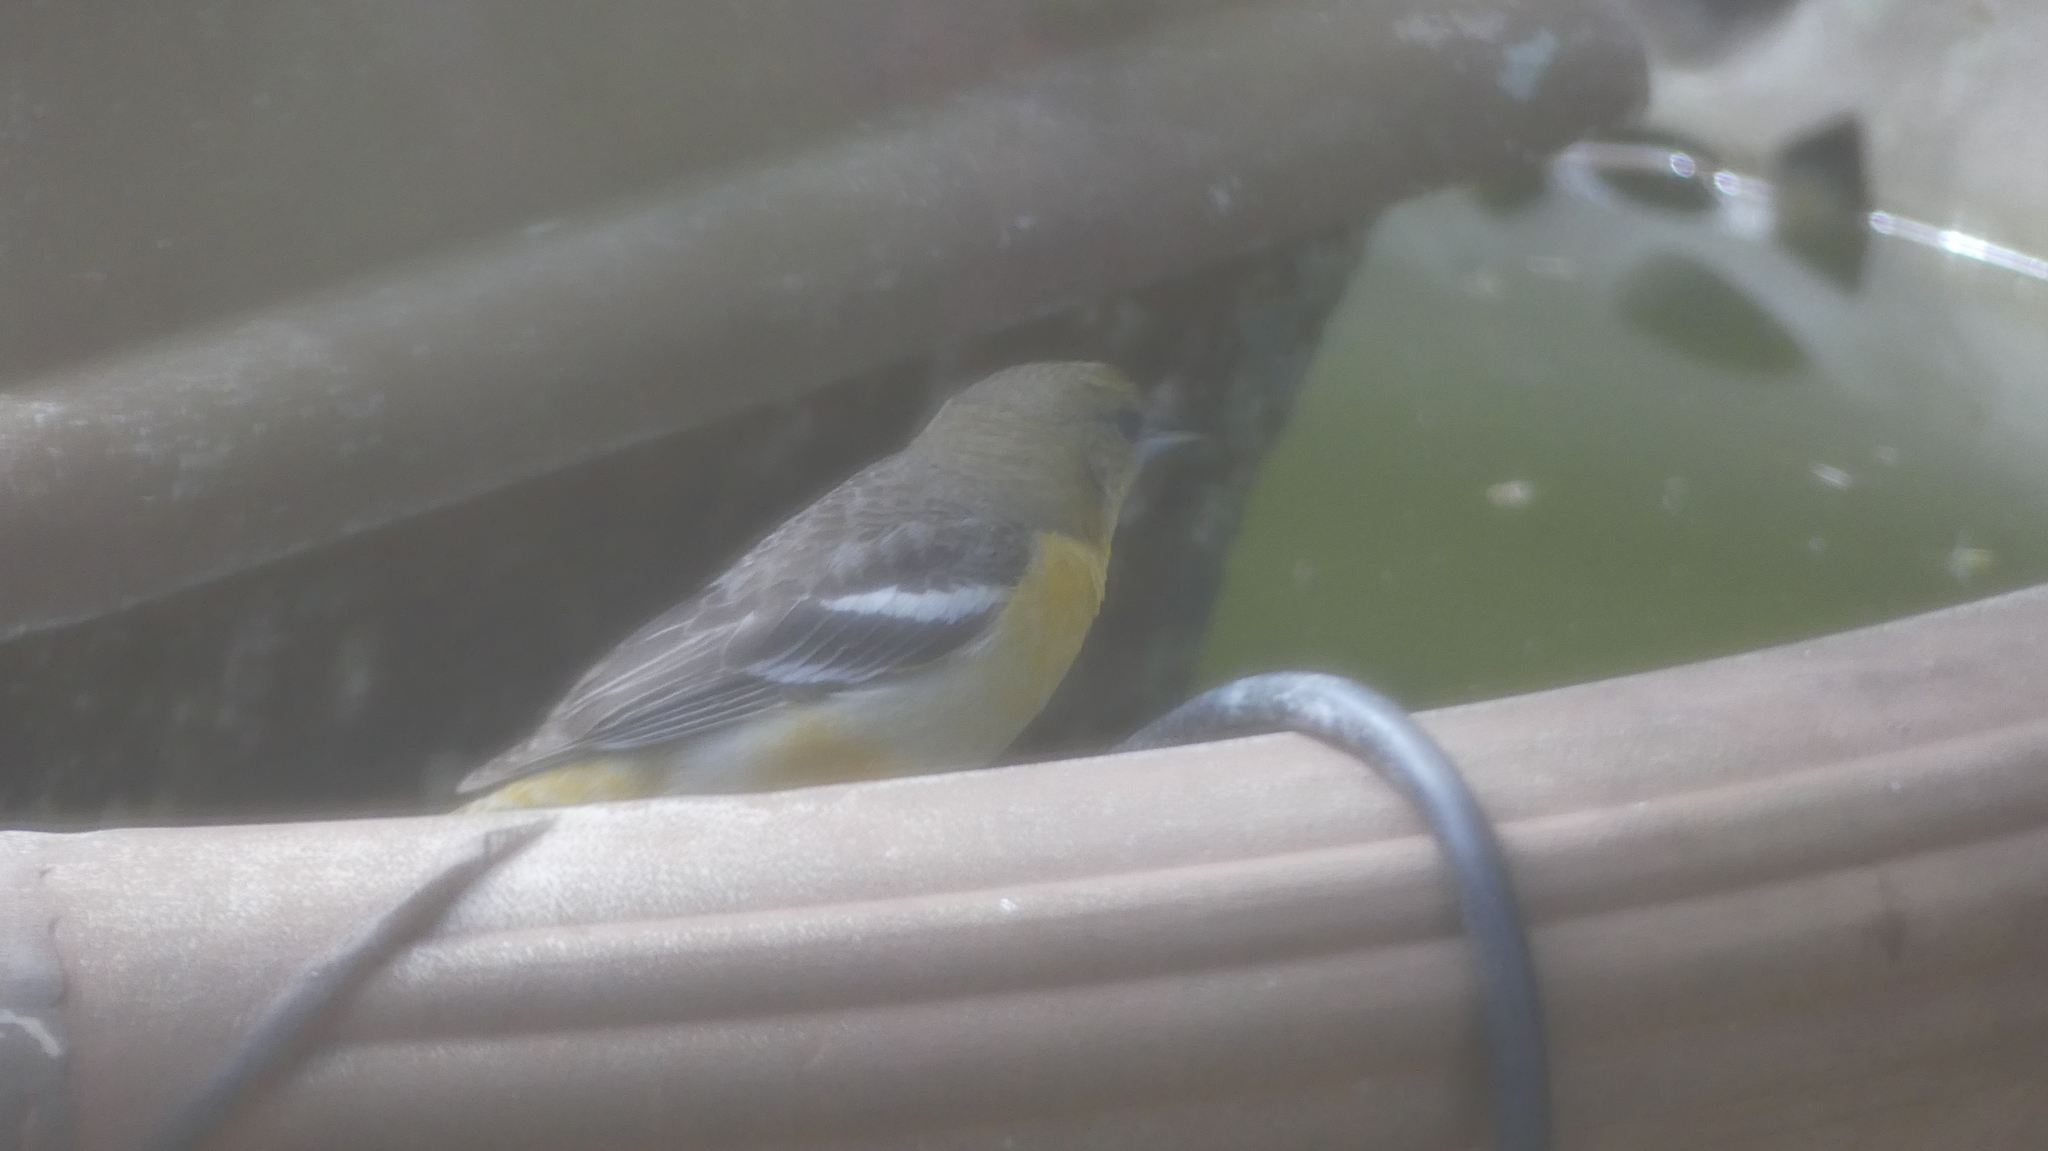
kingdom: Animalia
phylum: Chordata
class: Aves
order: Passeriformes
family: Icteridae
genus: Icterus
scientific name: Icterus galbula
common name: Baltimore oriole
